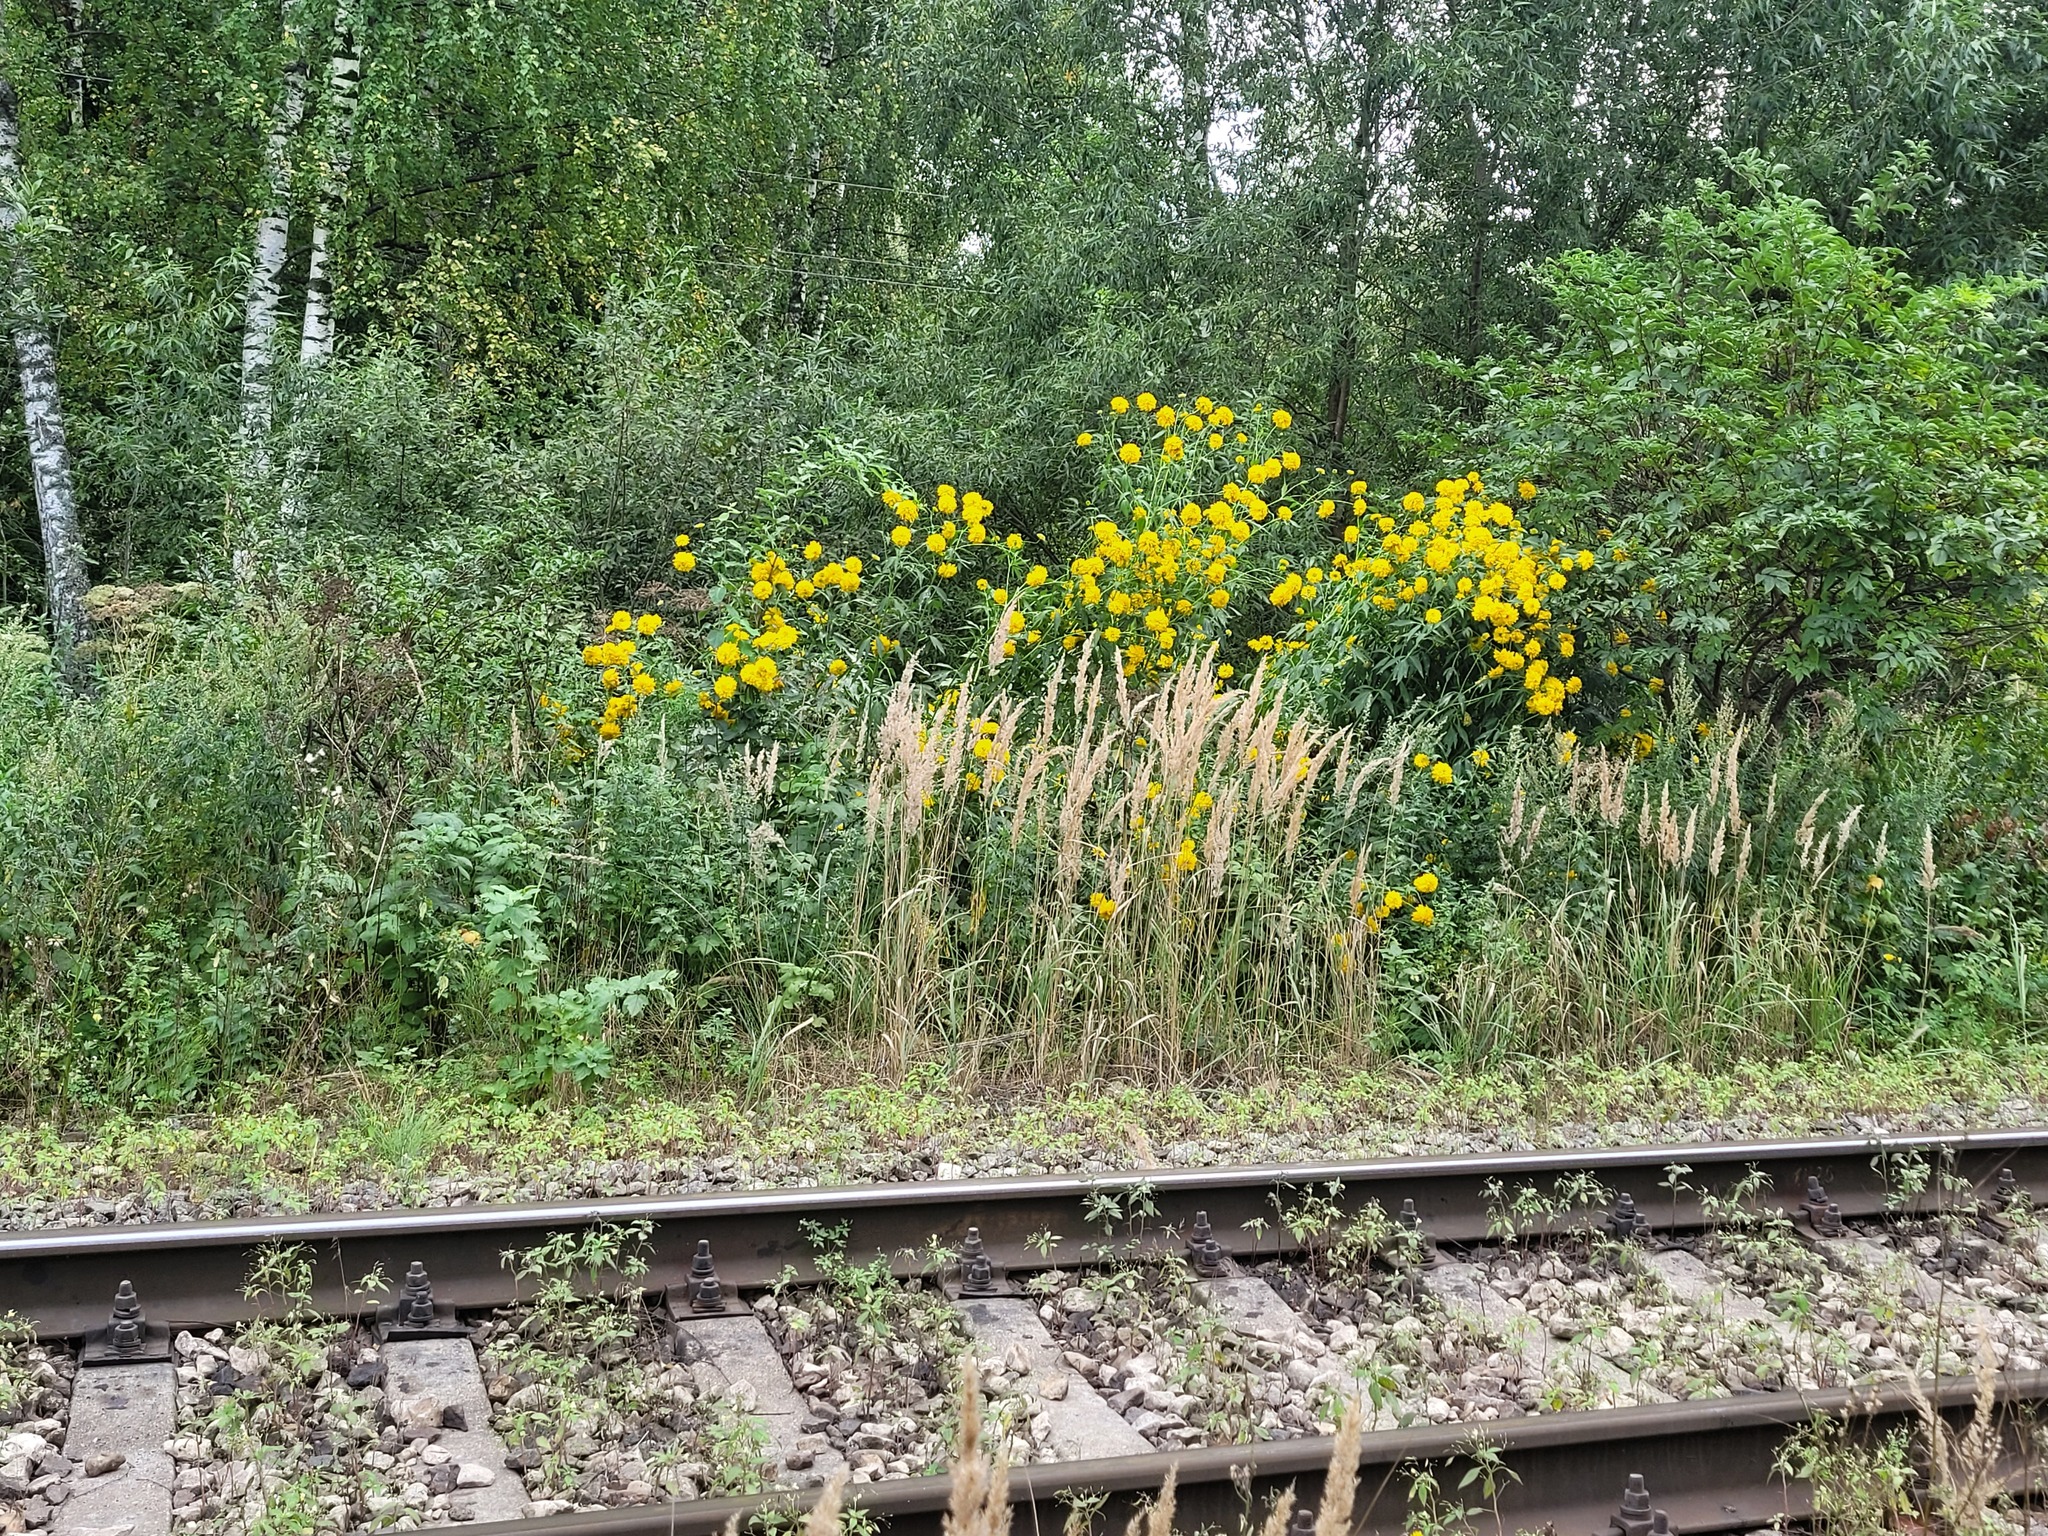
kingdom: Plantae
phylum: Tracheophyta
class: Magnoliopsida
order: Asterales
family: Asteraceae
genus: Rudbeckia
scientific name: Rudbeckia laciniata
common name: Coneflower
